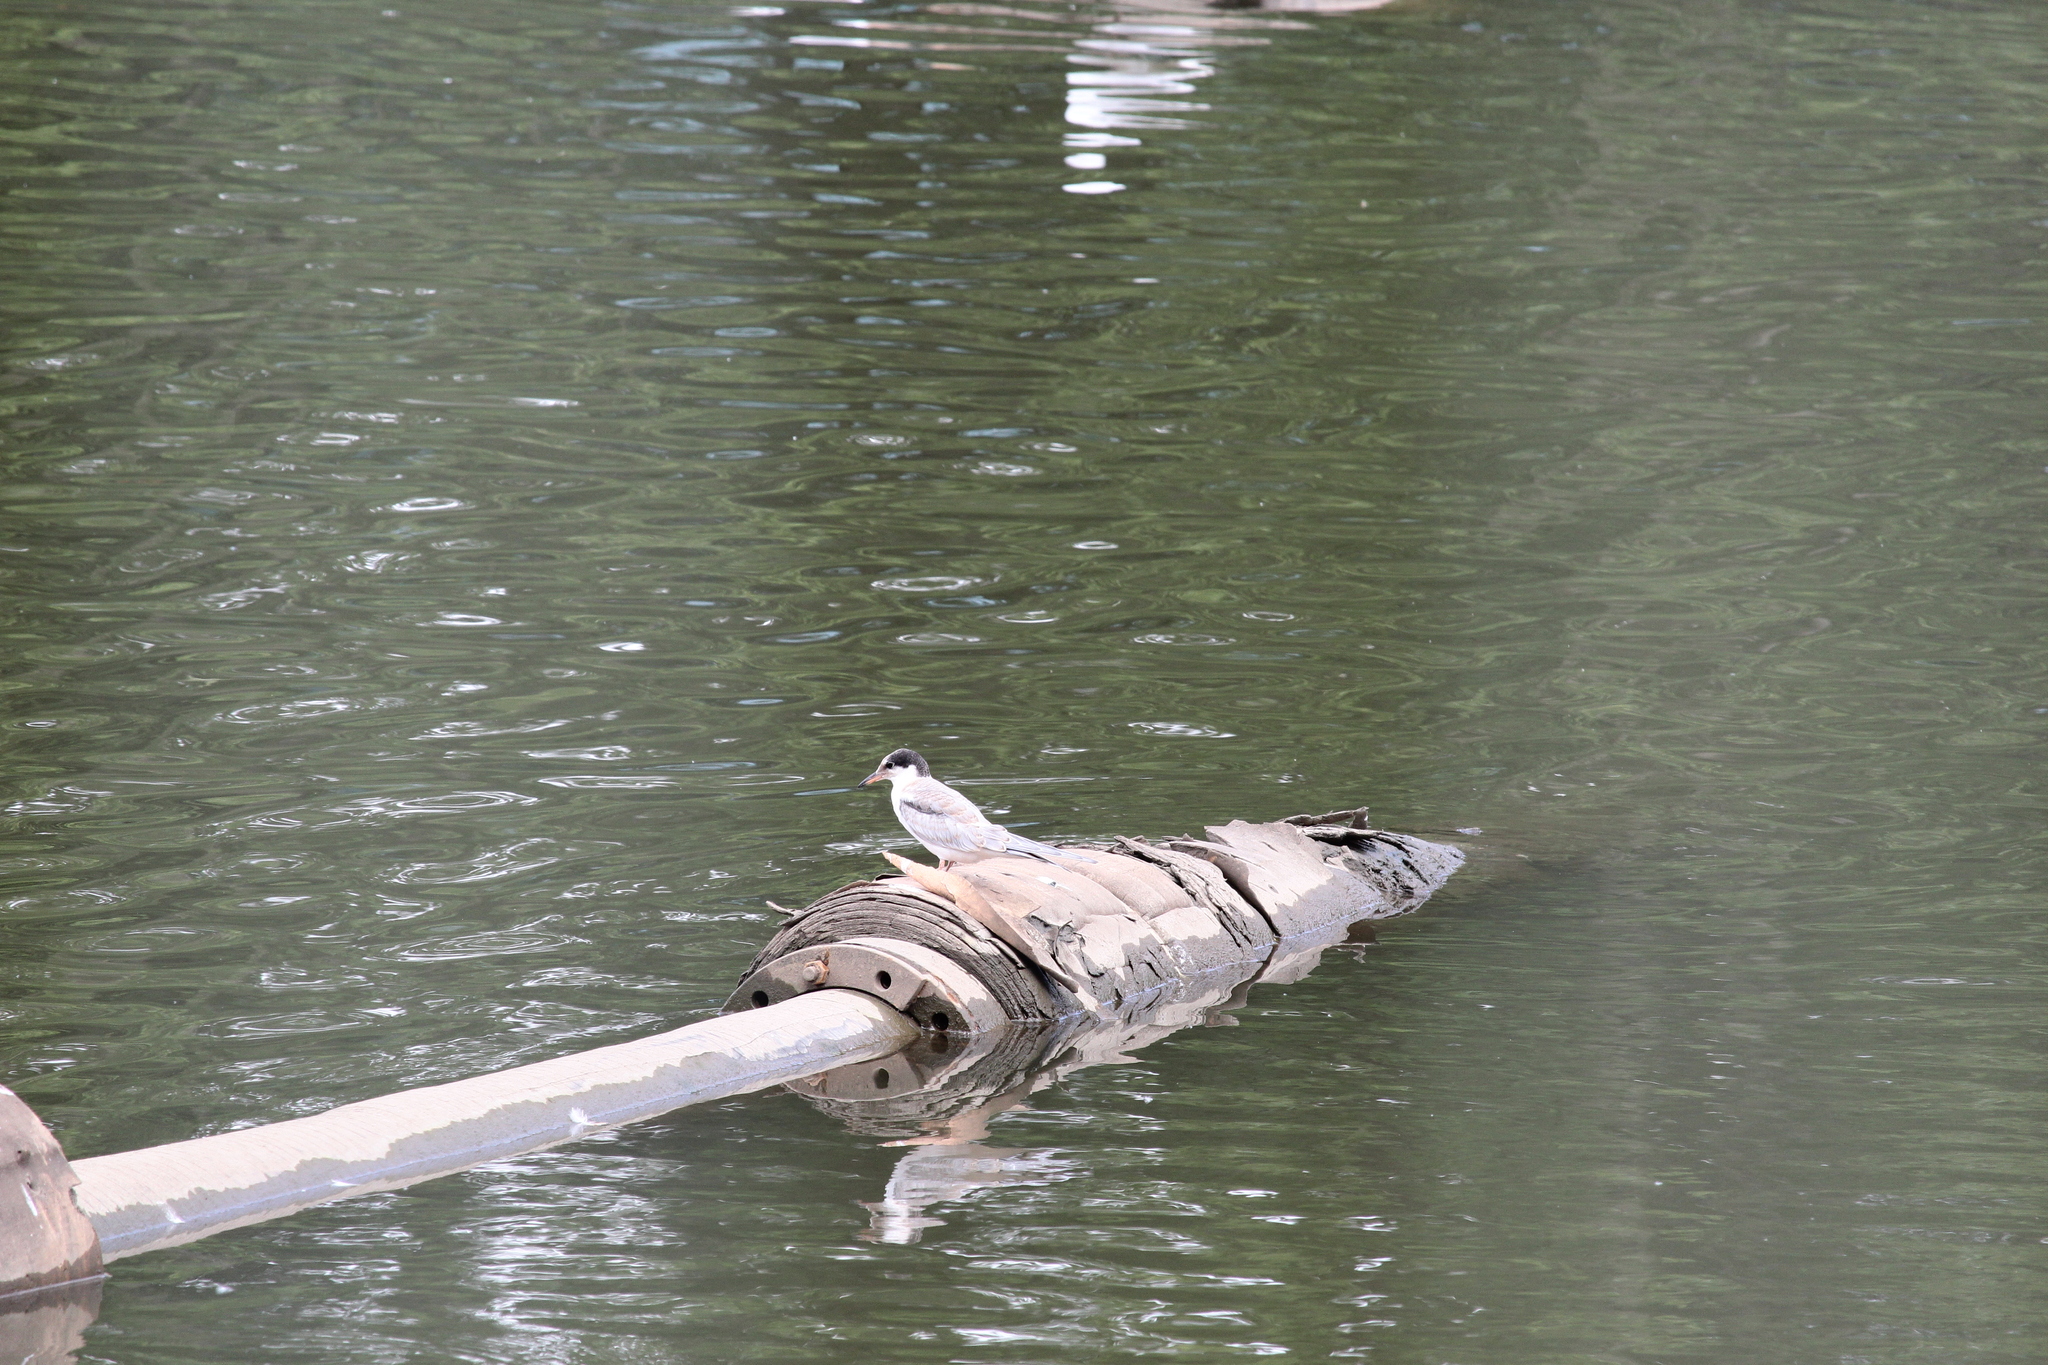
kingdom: Animalia
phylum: Chordata
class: Aves
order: Charadriiformes
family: Laridae
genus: Sterna
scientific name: Sterna hirundo
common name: Common tern
